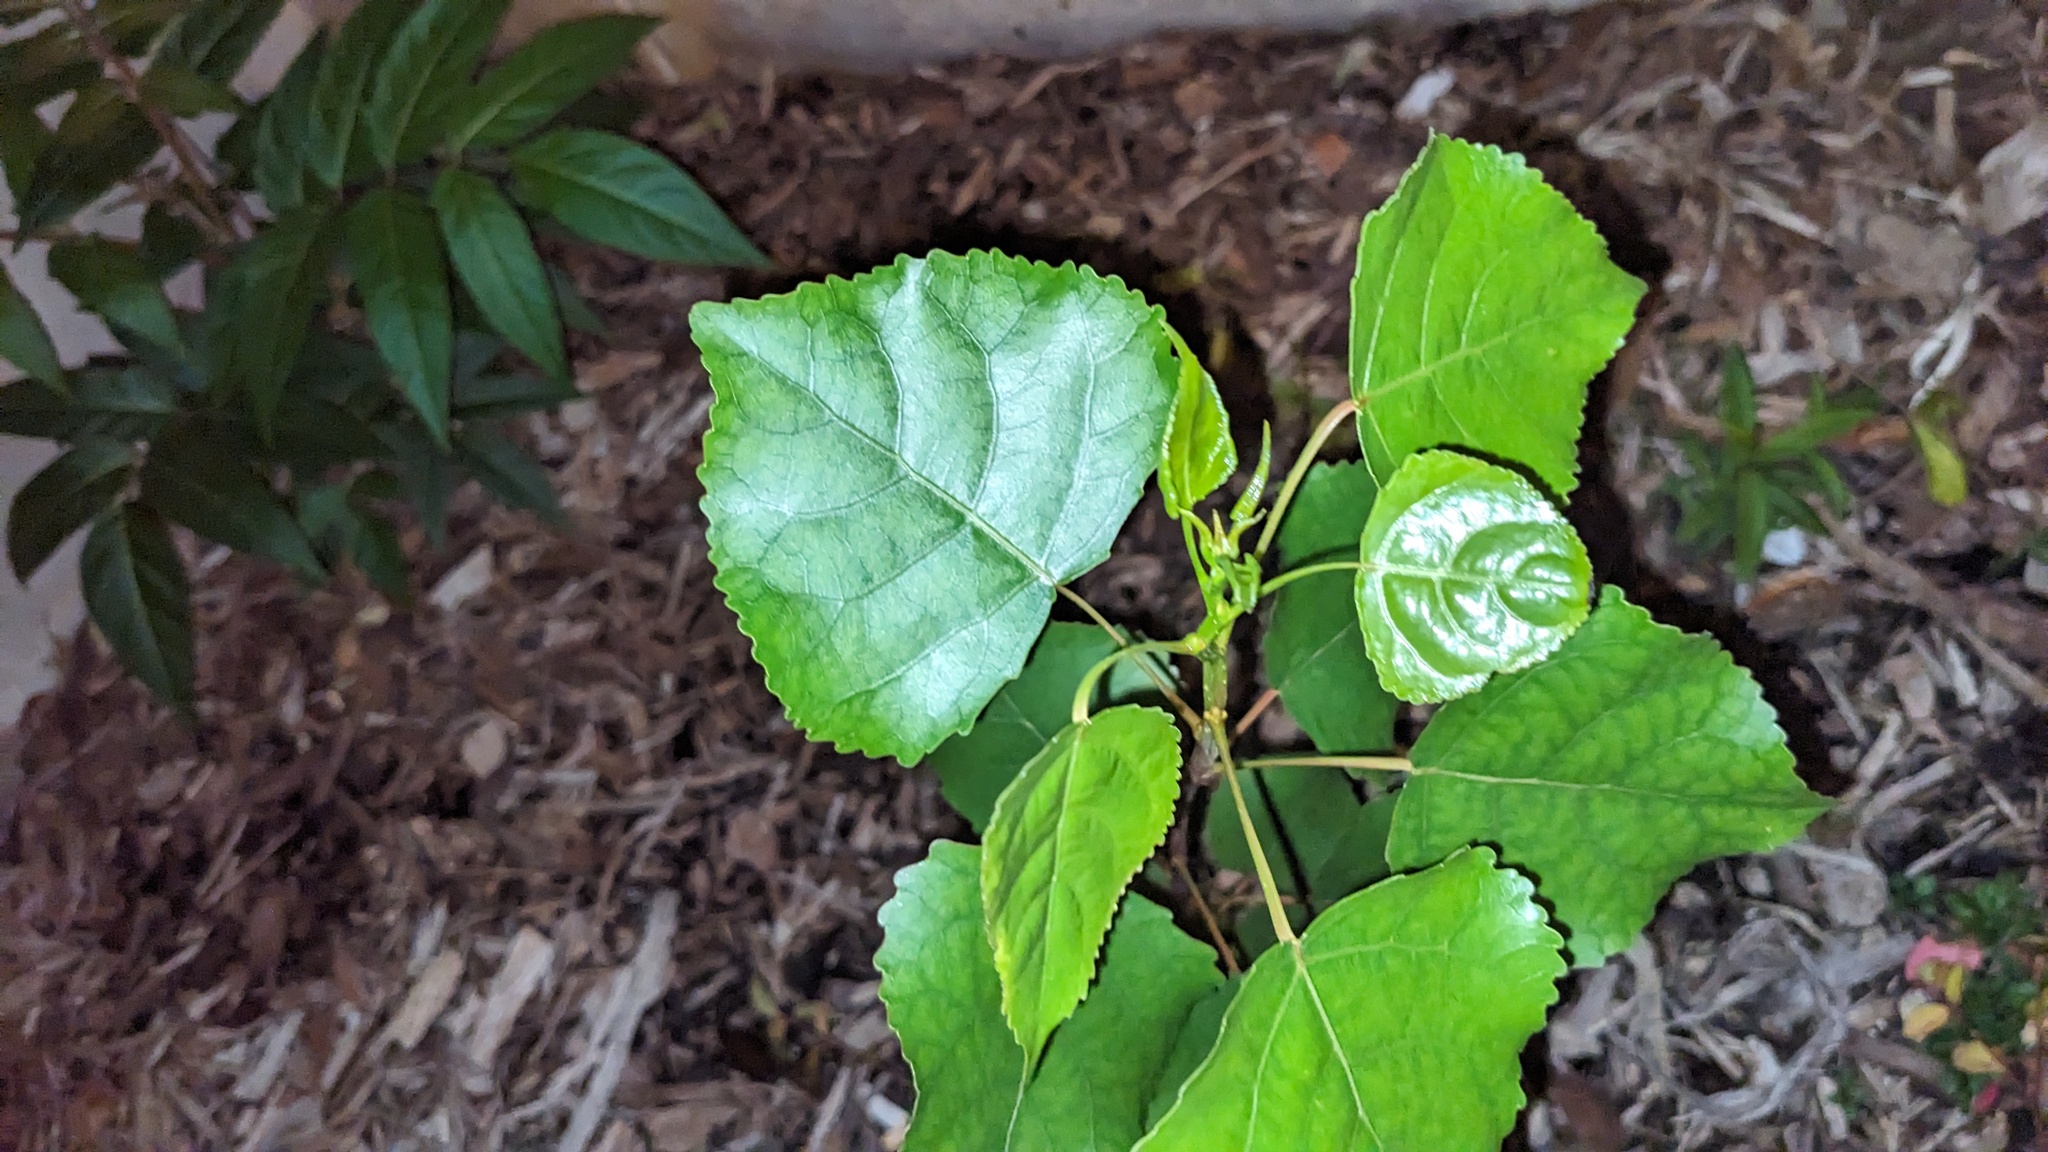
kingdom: Plantae
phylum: Tracheophyta
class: Magnoliopsida
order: Malpighiales
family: Salicaceae
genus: Populus
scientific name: Populus deltoides
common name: Eastern cottonwood
